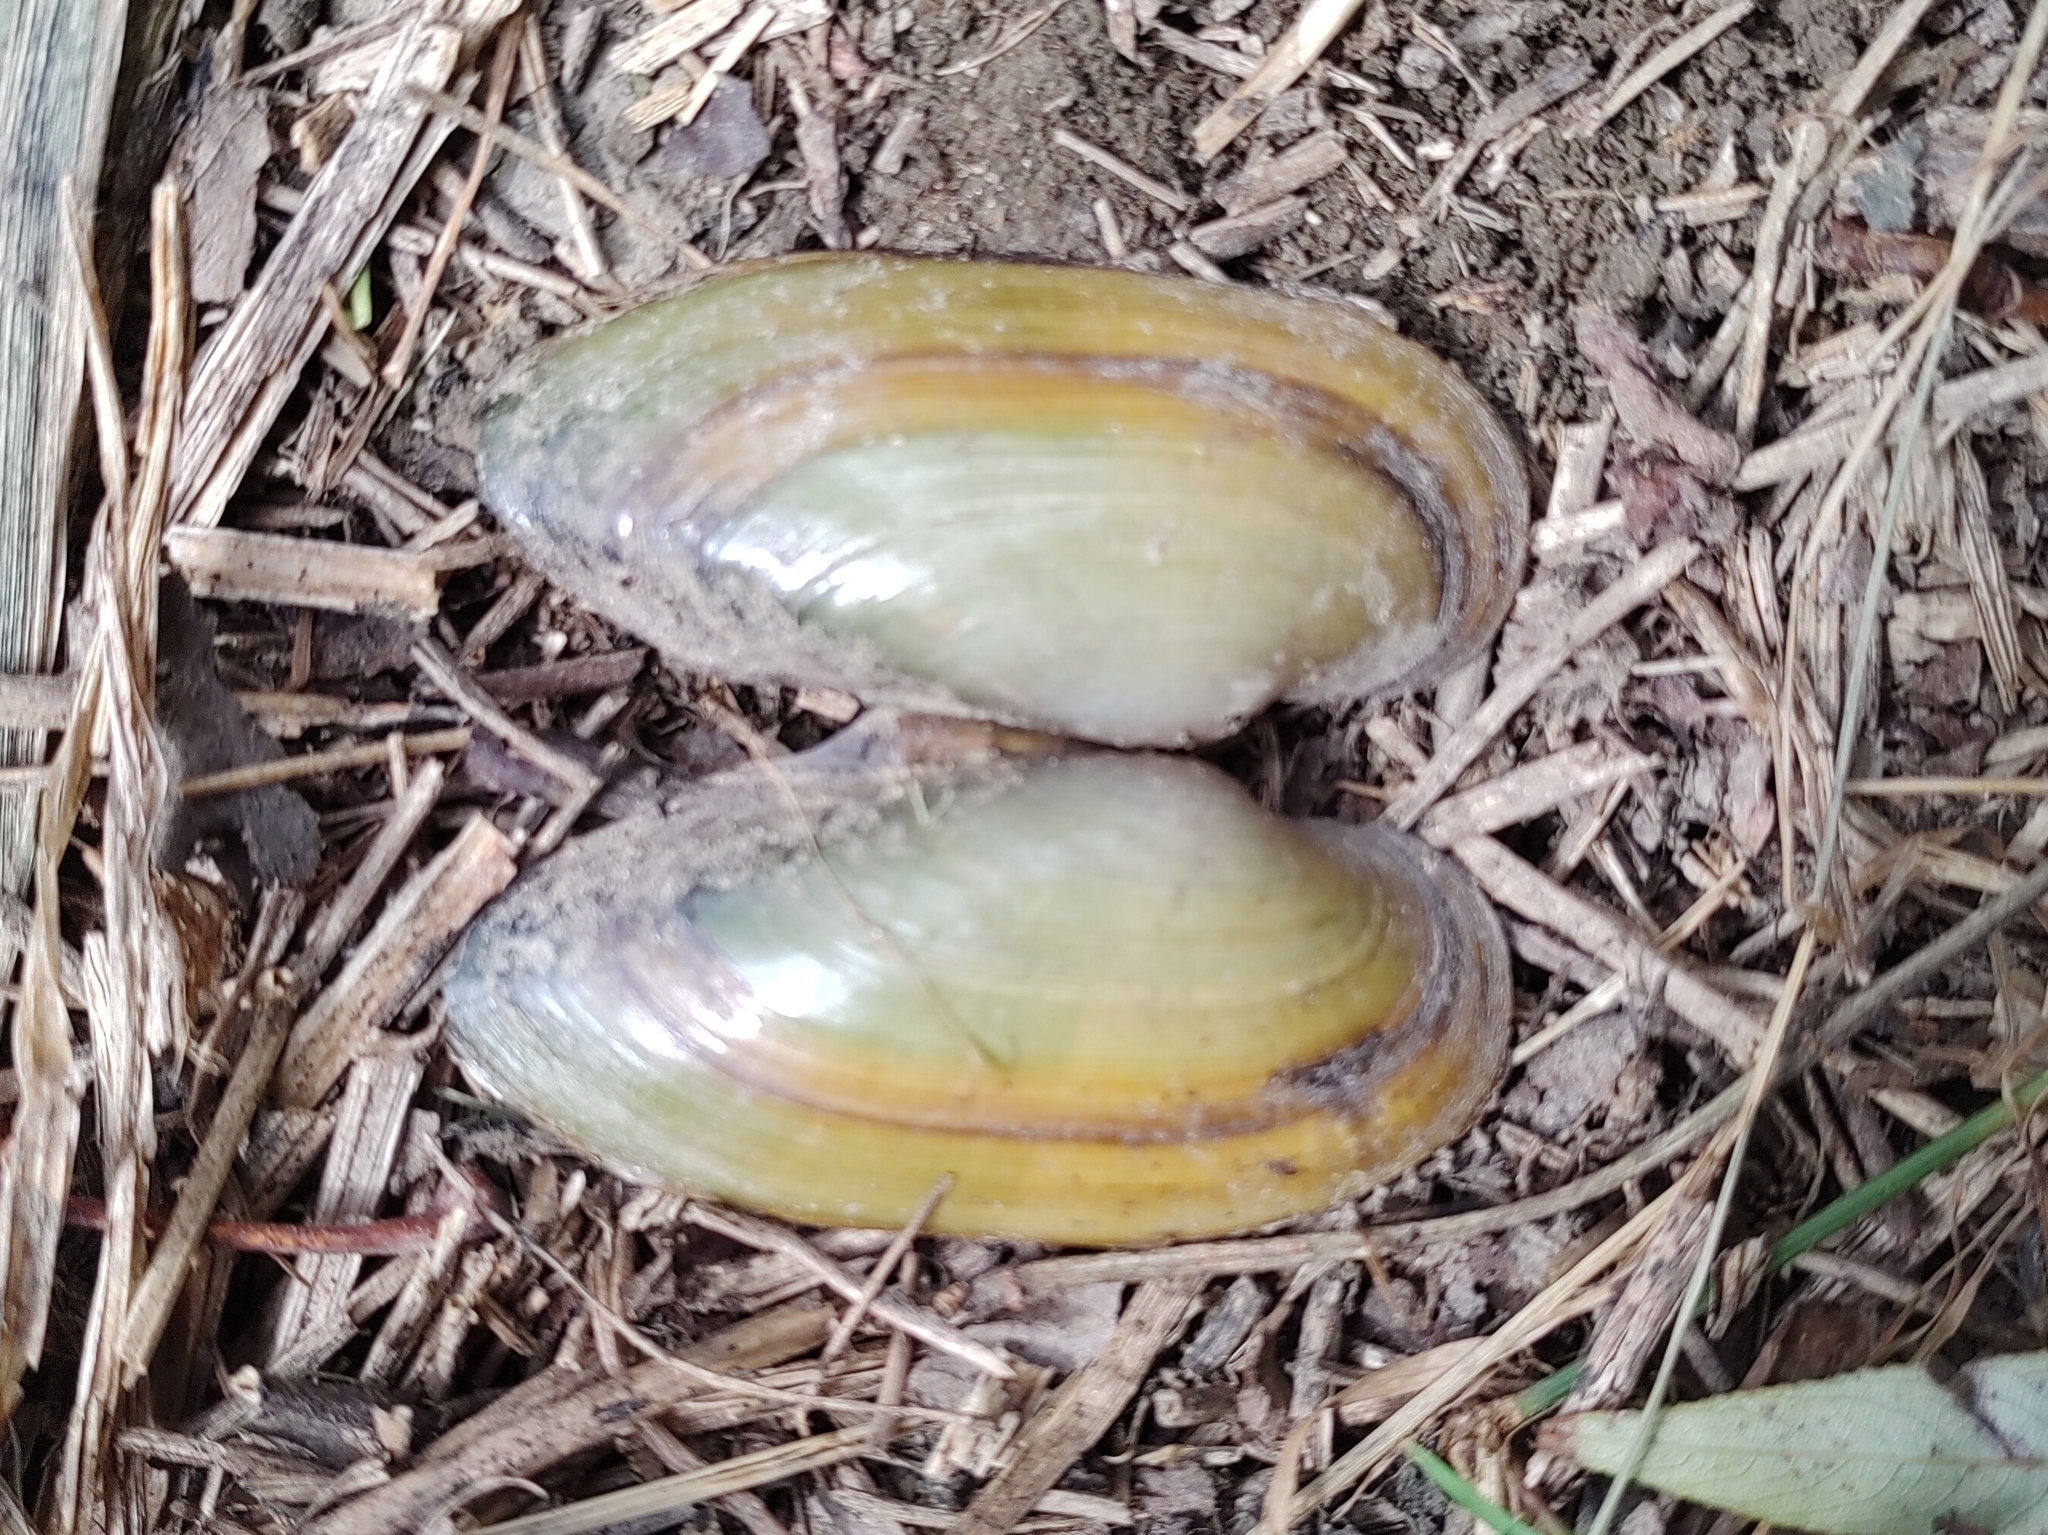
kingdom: Animalia
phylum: Mollusca
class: Bivalvia
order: Unionida
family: Unionidae
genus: Unio
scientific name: Unio pictorum
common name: Painter's mussel
